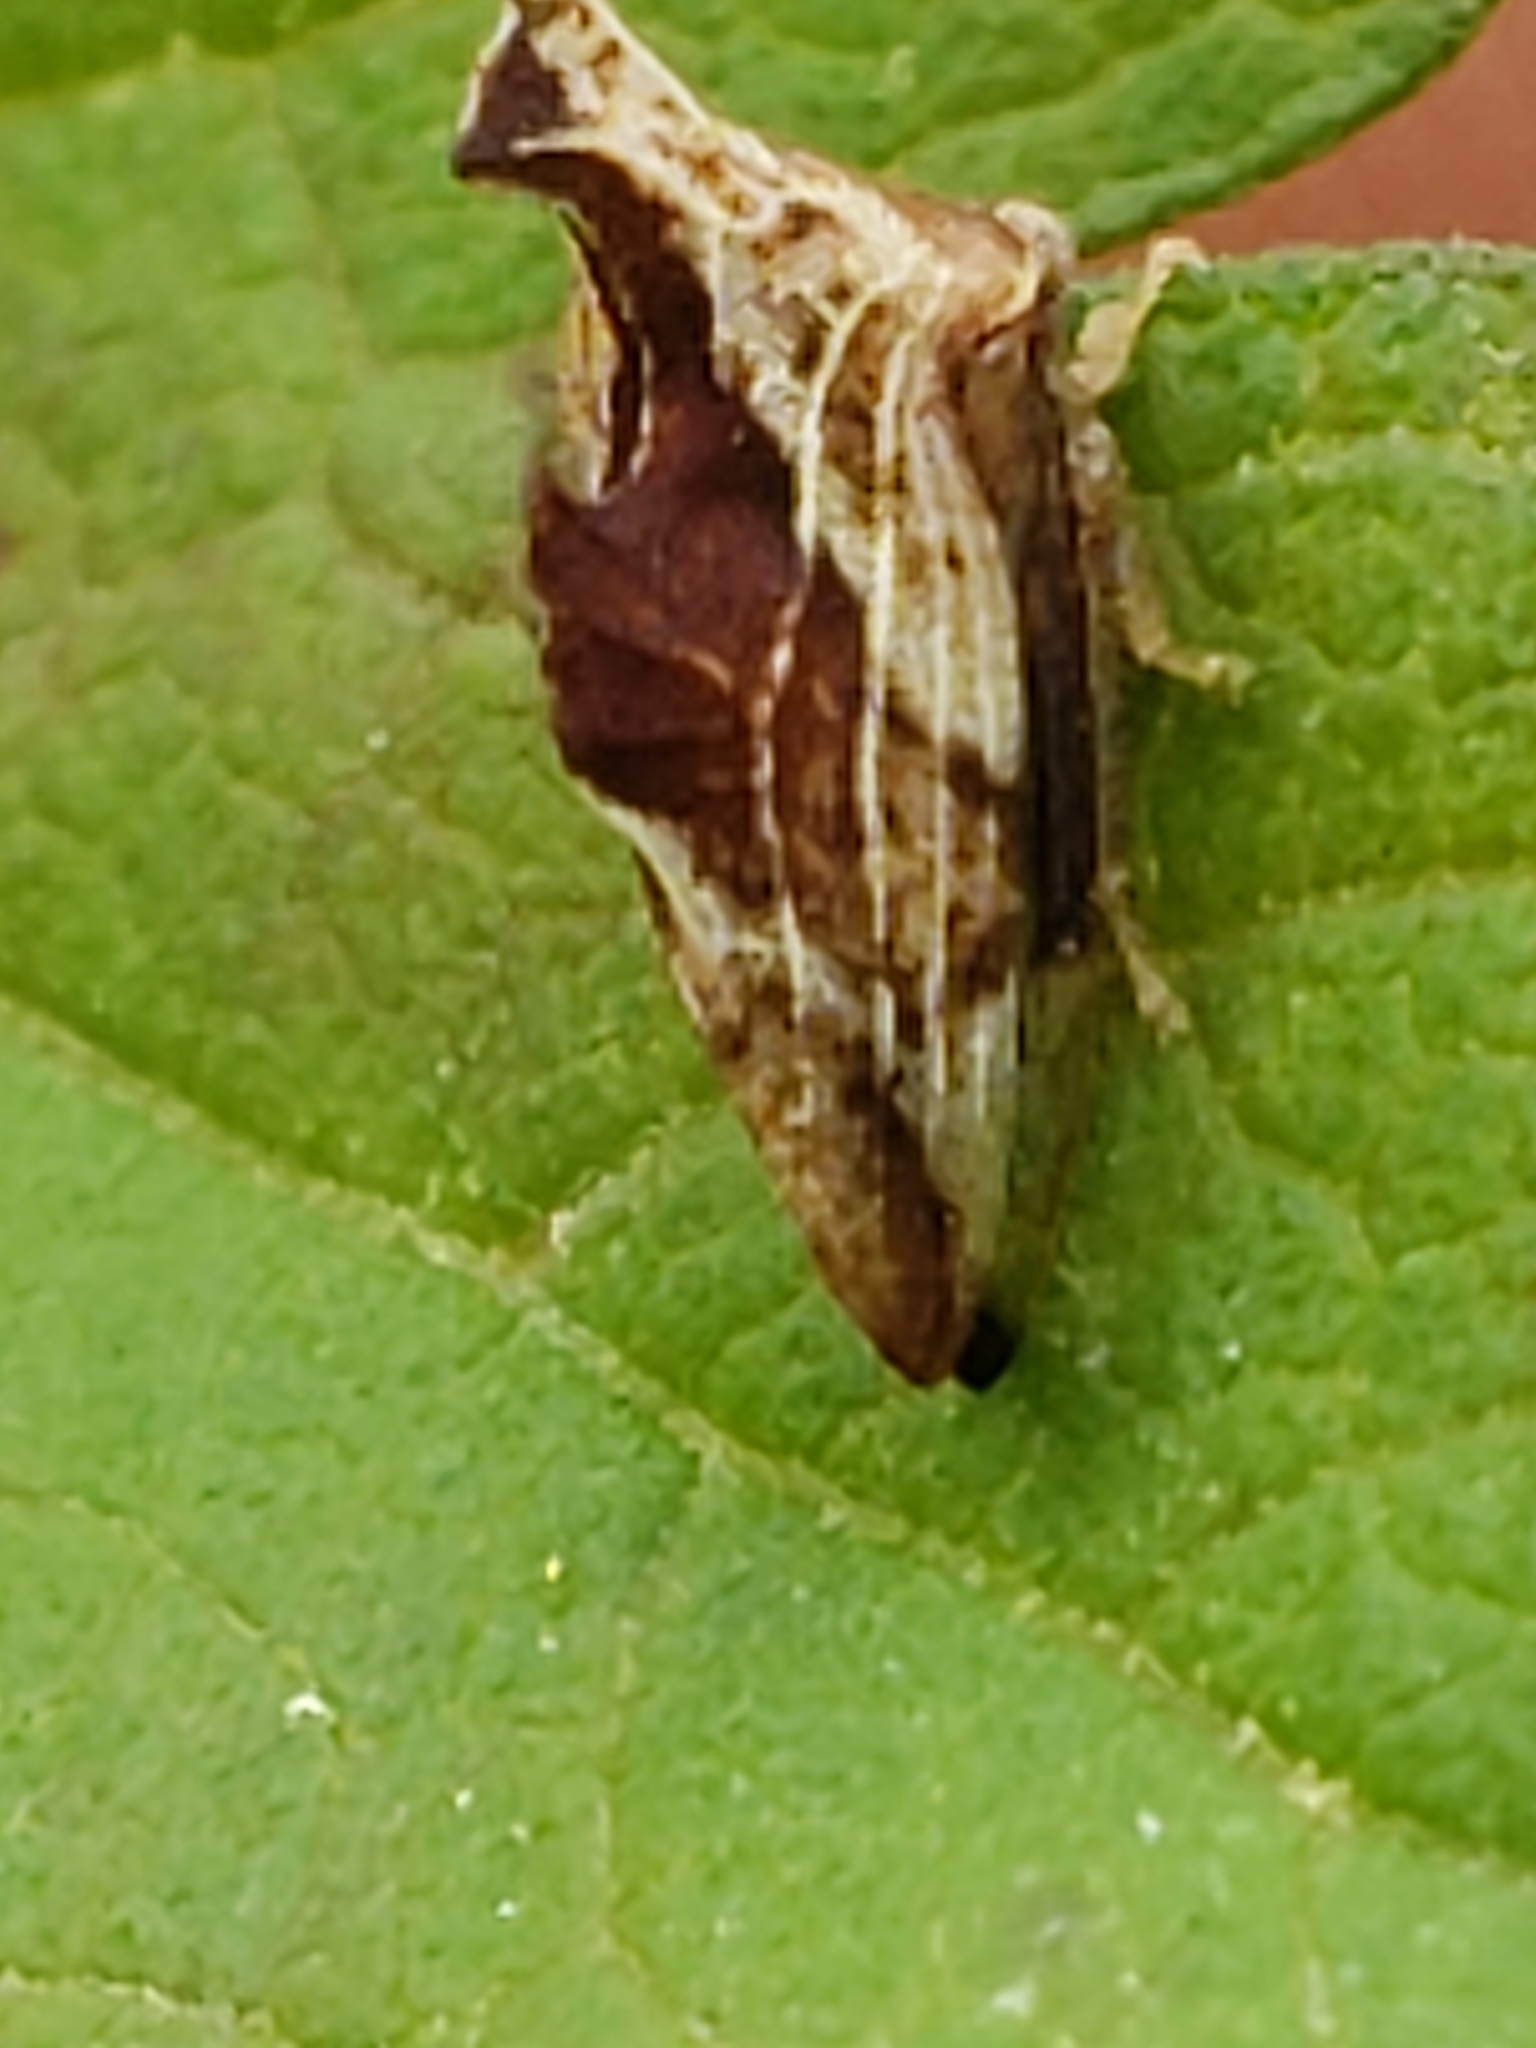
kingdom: Animalia
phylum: Arthropoda
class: Insecta
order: Hemiptera
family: Membracidae
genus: Entylia
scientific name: Entylia carinata
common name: Keeled treehopper
